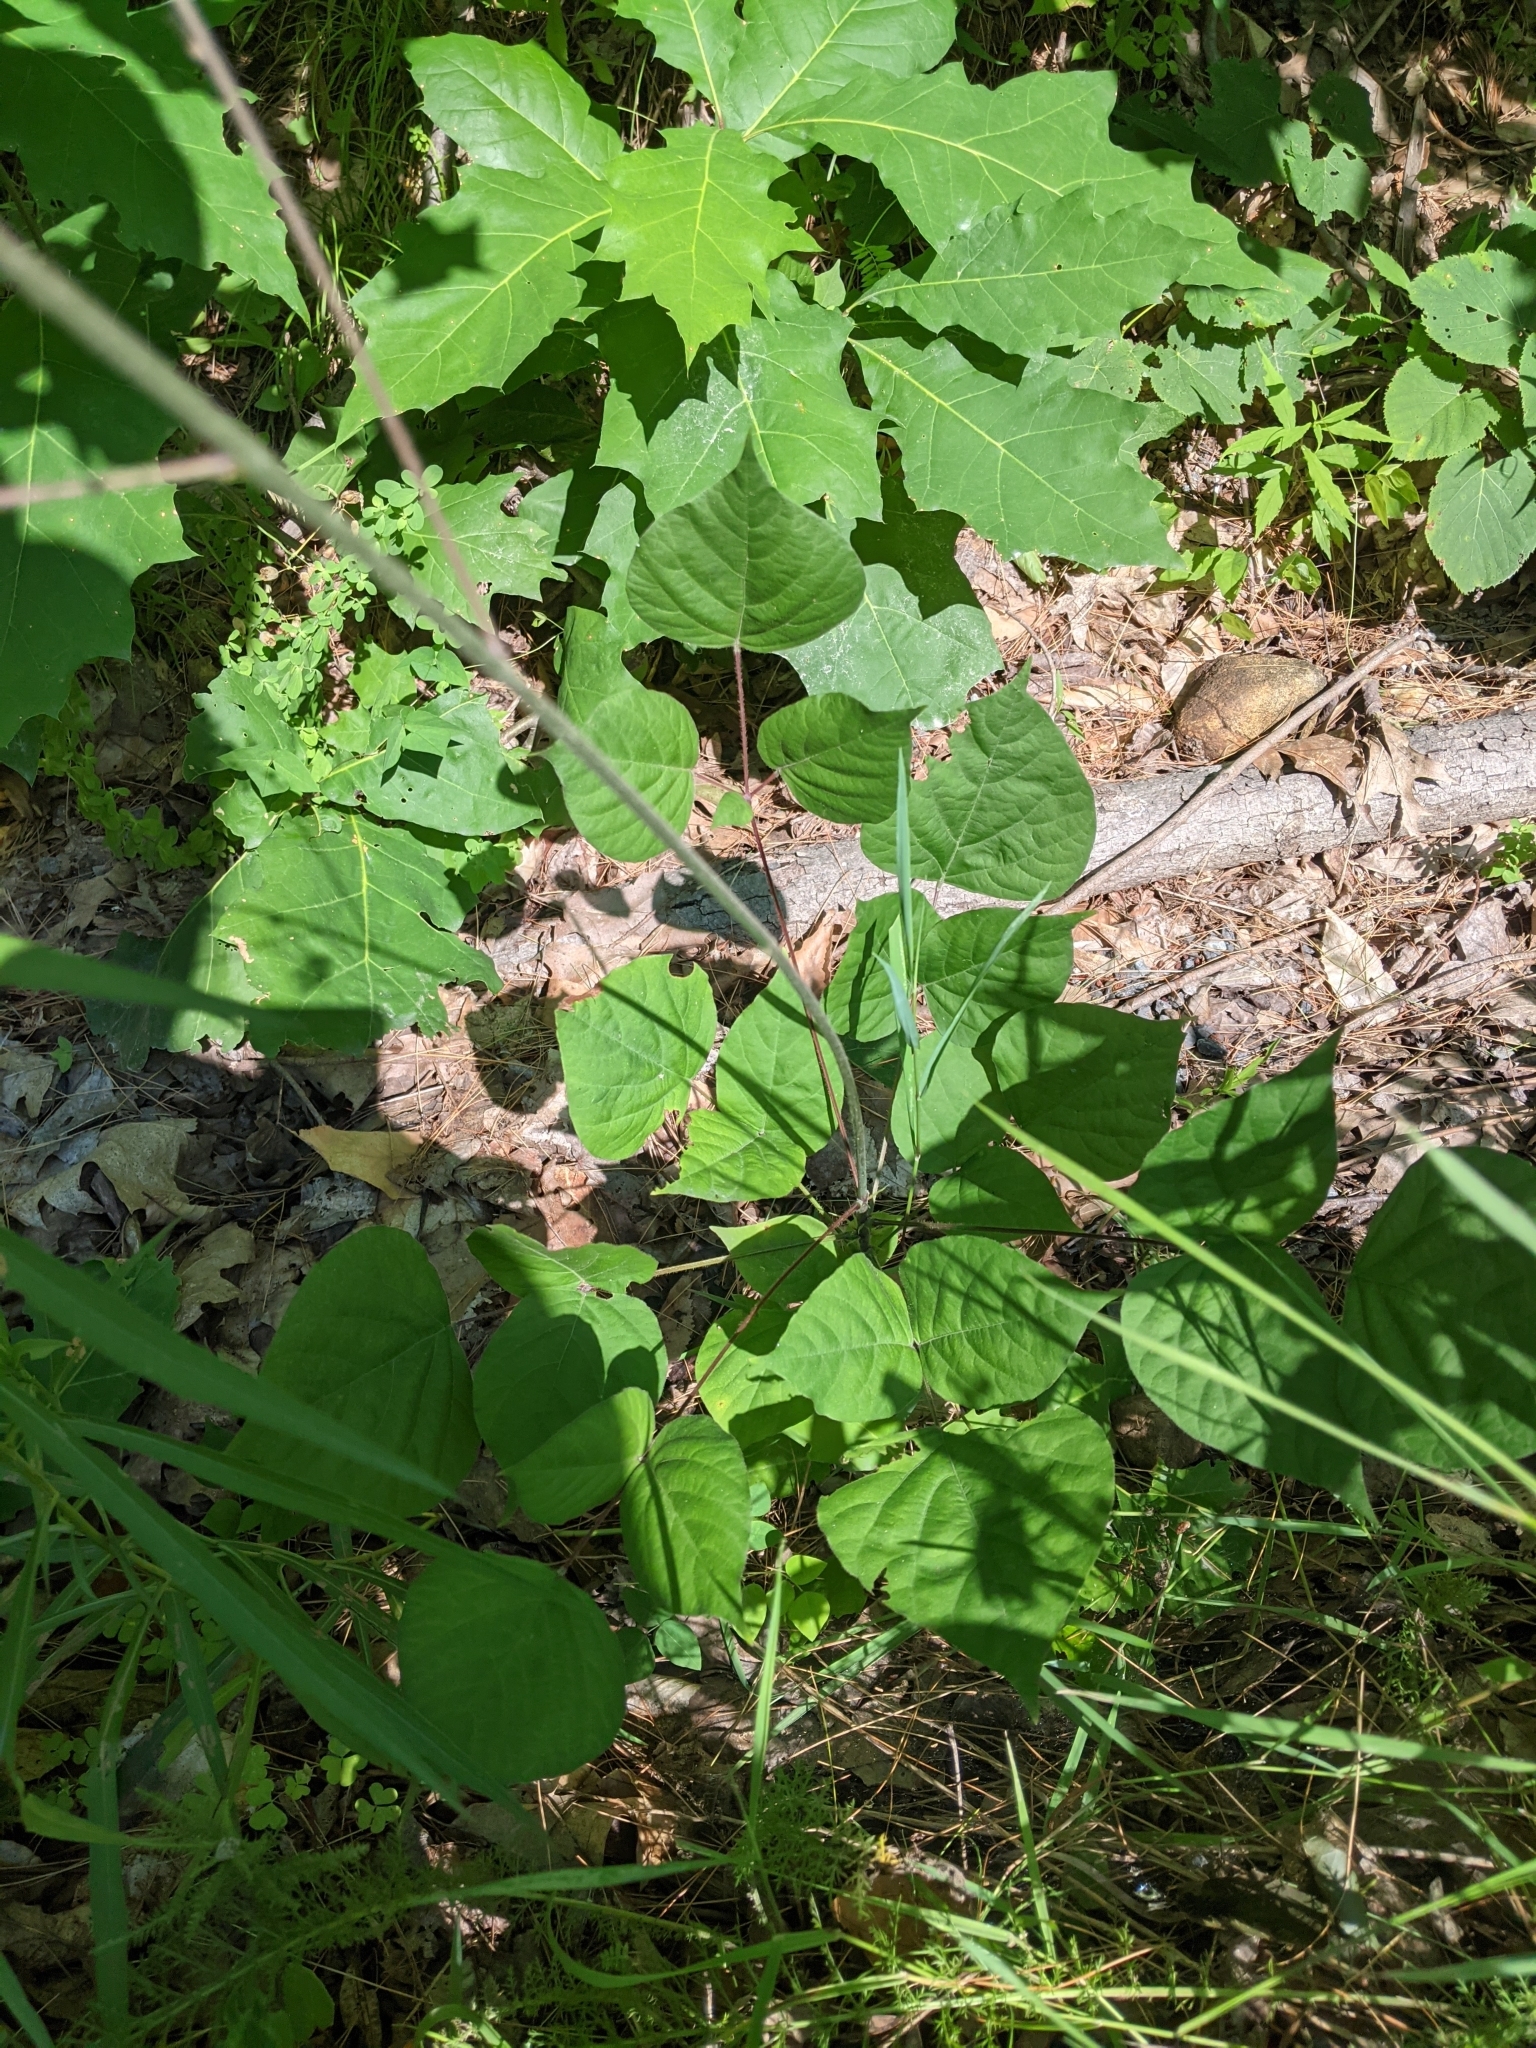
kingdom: Plantae
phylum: Tracheophyta
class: Magnoliopsida
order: Fabales
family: Fabaceae
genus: Hylodesmum
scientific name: Hylodesmum glutinosum
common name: Clustered-leaved tick-trefoil
